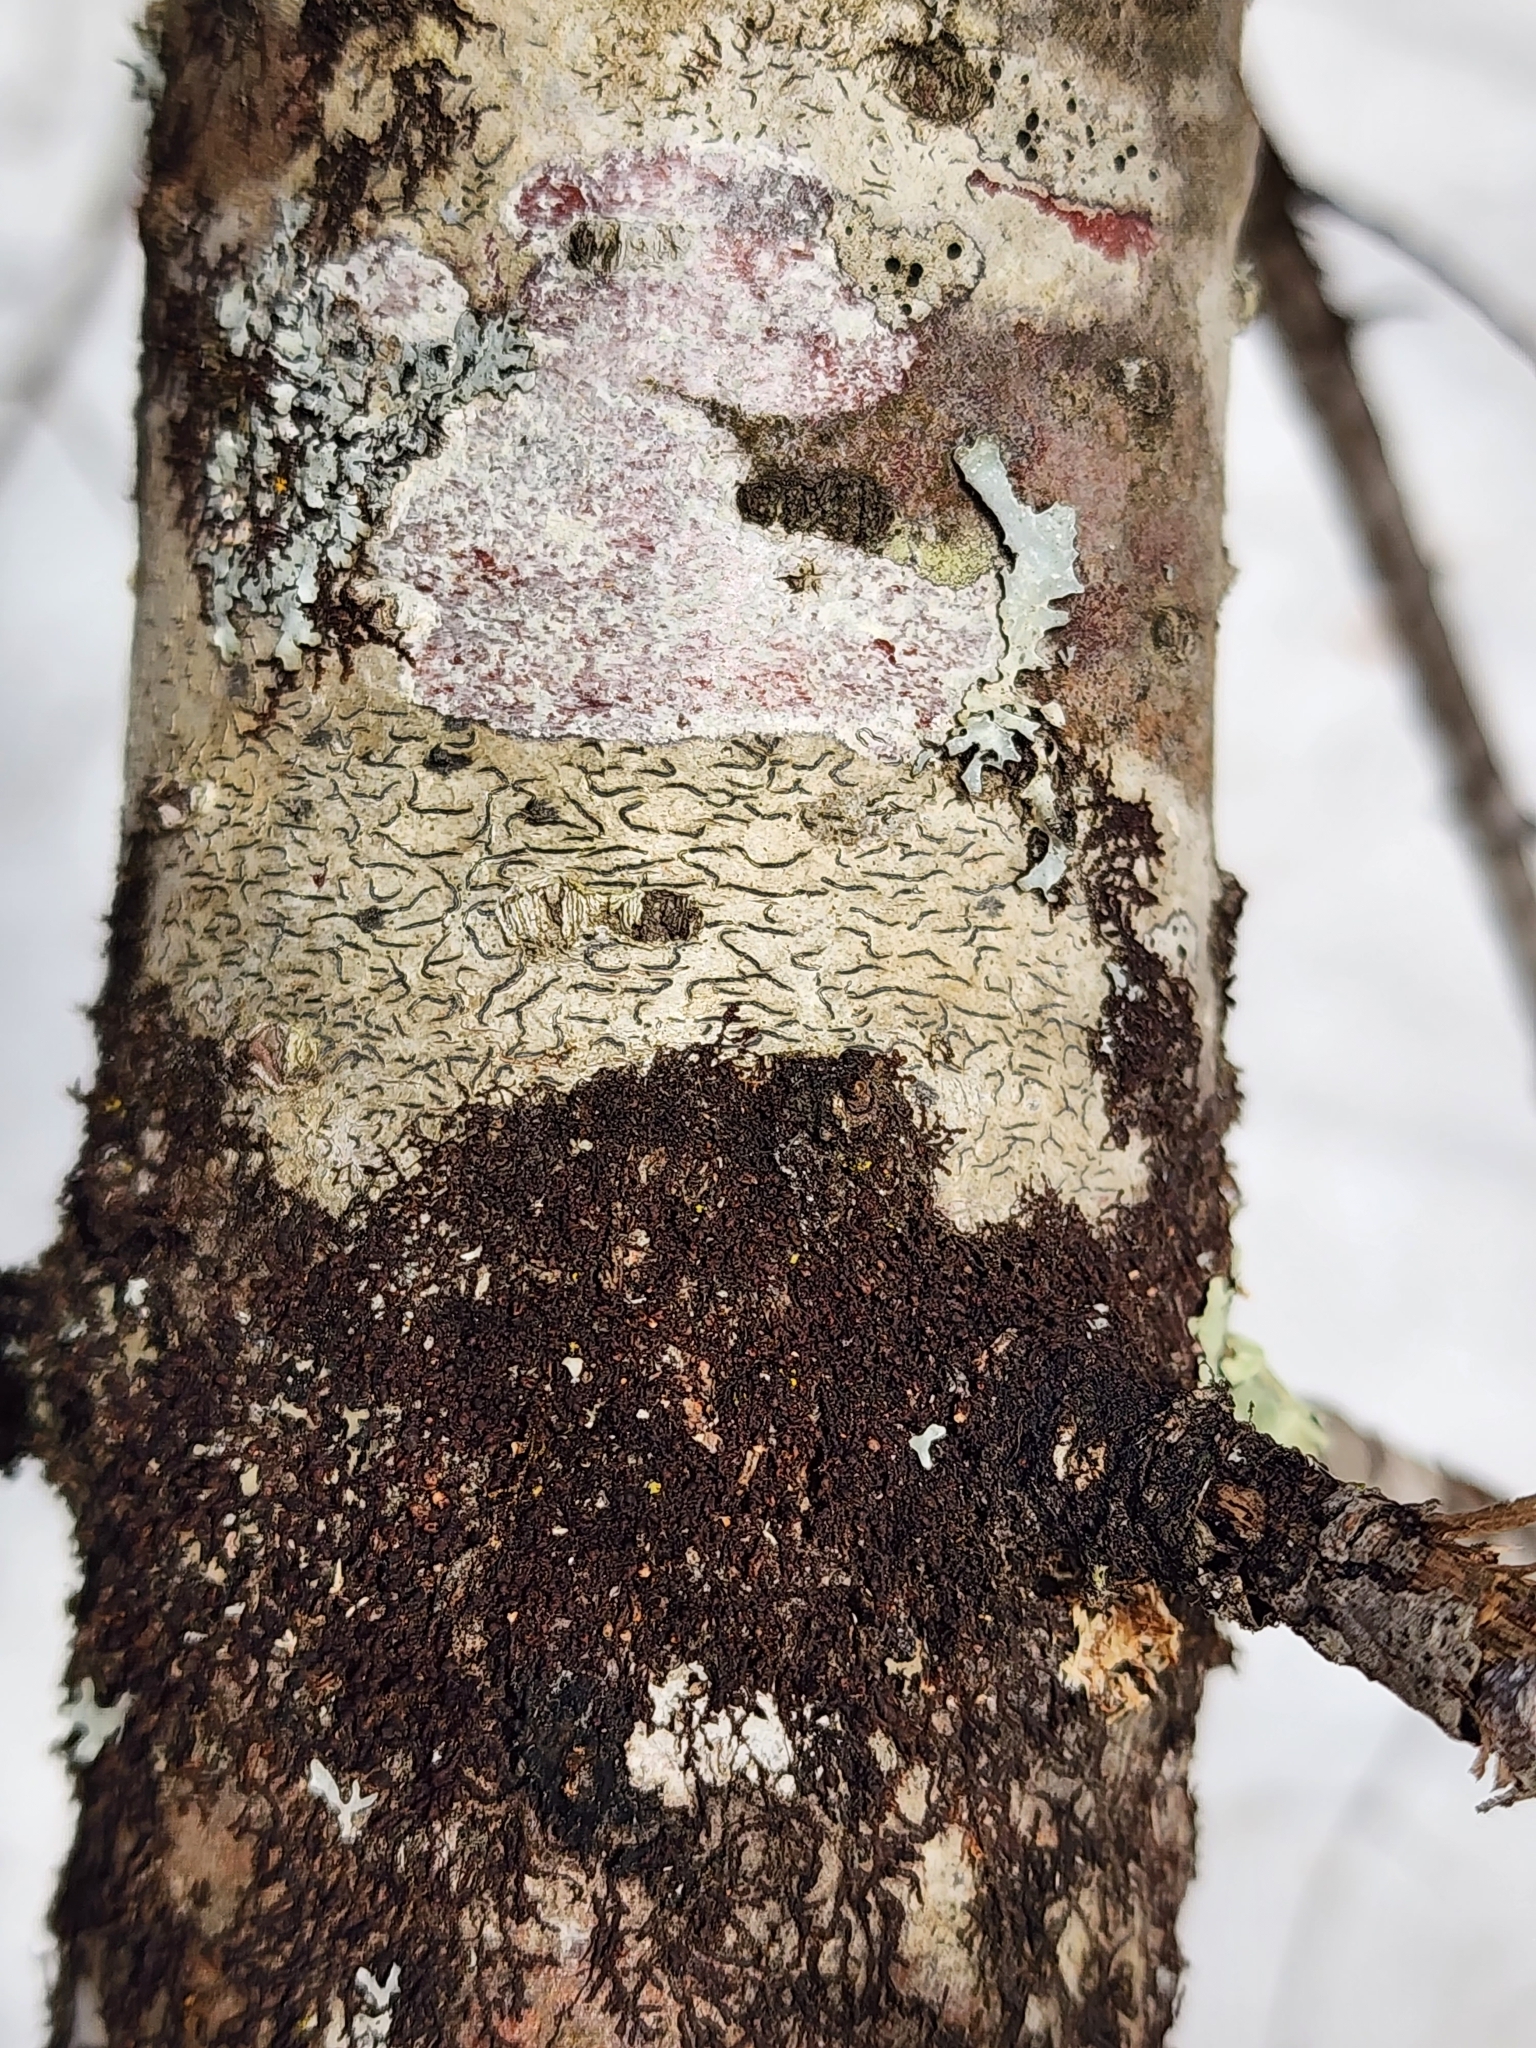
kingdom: Fungi
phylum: Ascomycota
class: Lecanoromycetes
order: Ostropales
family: Graphidaceae
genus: Graphis
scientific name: Graphis scripta
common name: Script lichen
